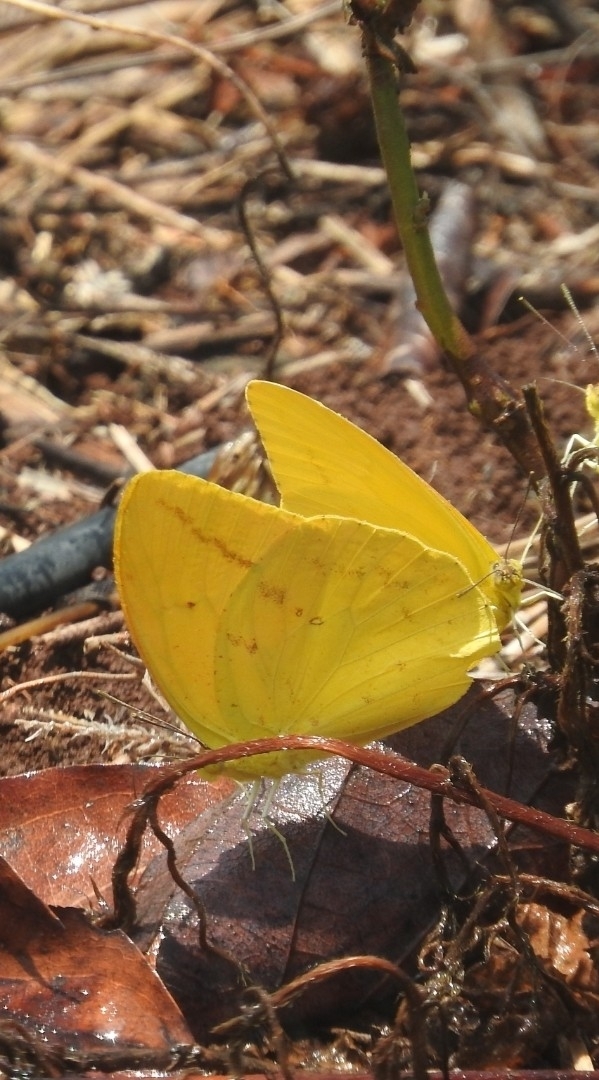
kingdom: Animalia
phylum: Arthropoda
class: Insecta
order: Lepidoptera
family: Pieridae
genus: Phoebis
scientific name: Phoebis agarithe
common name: Large orange sulphur
